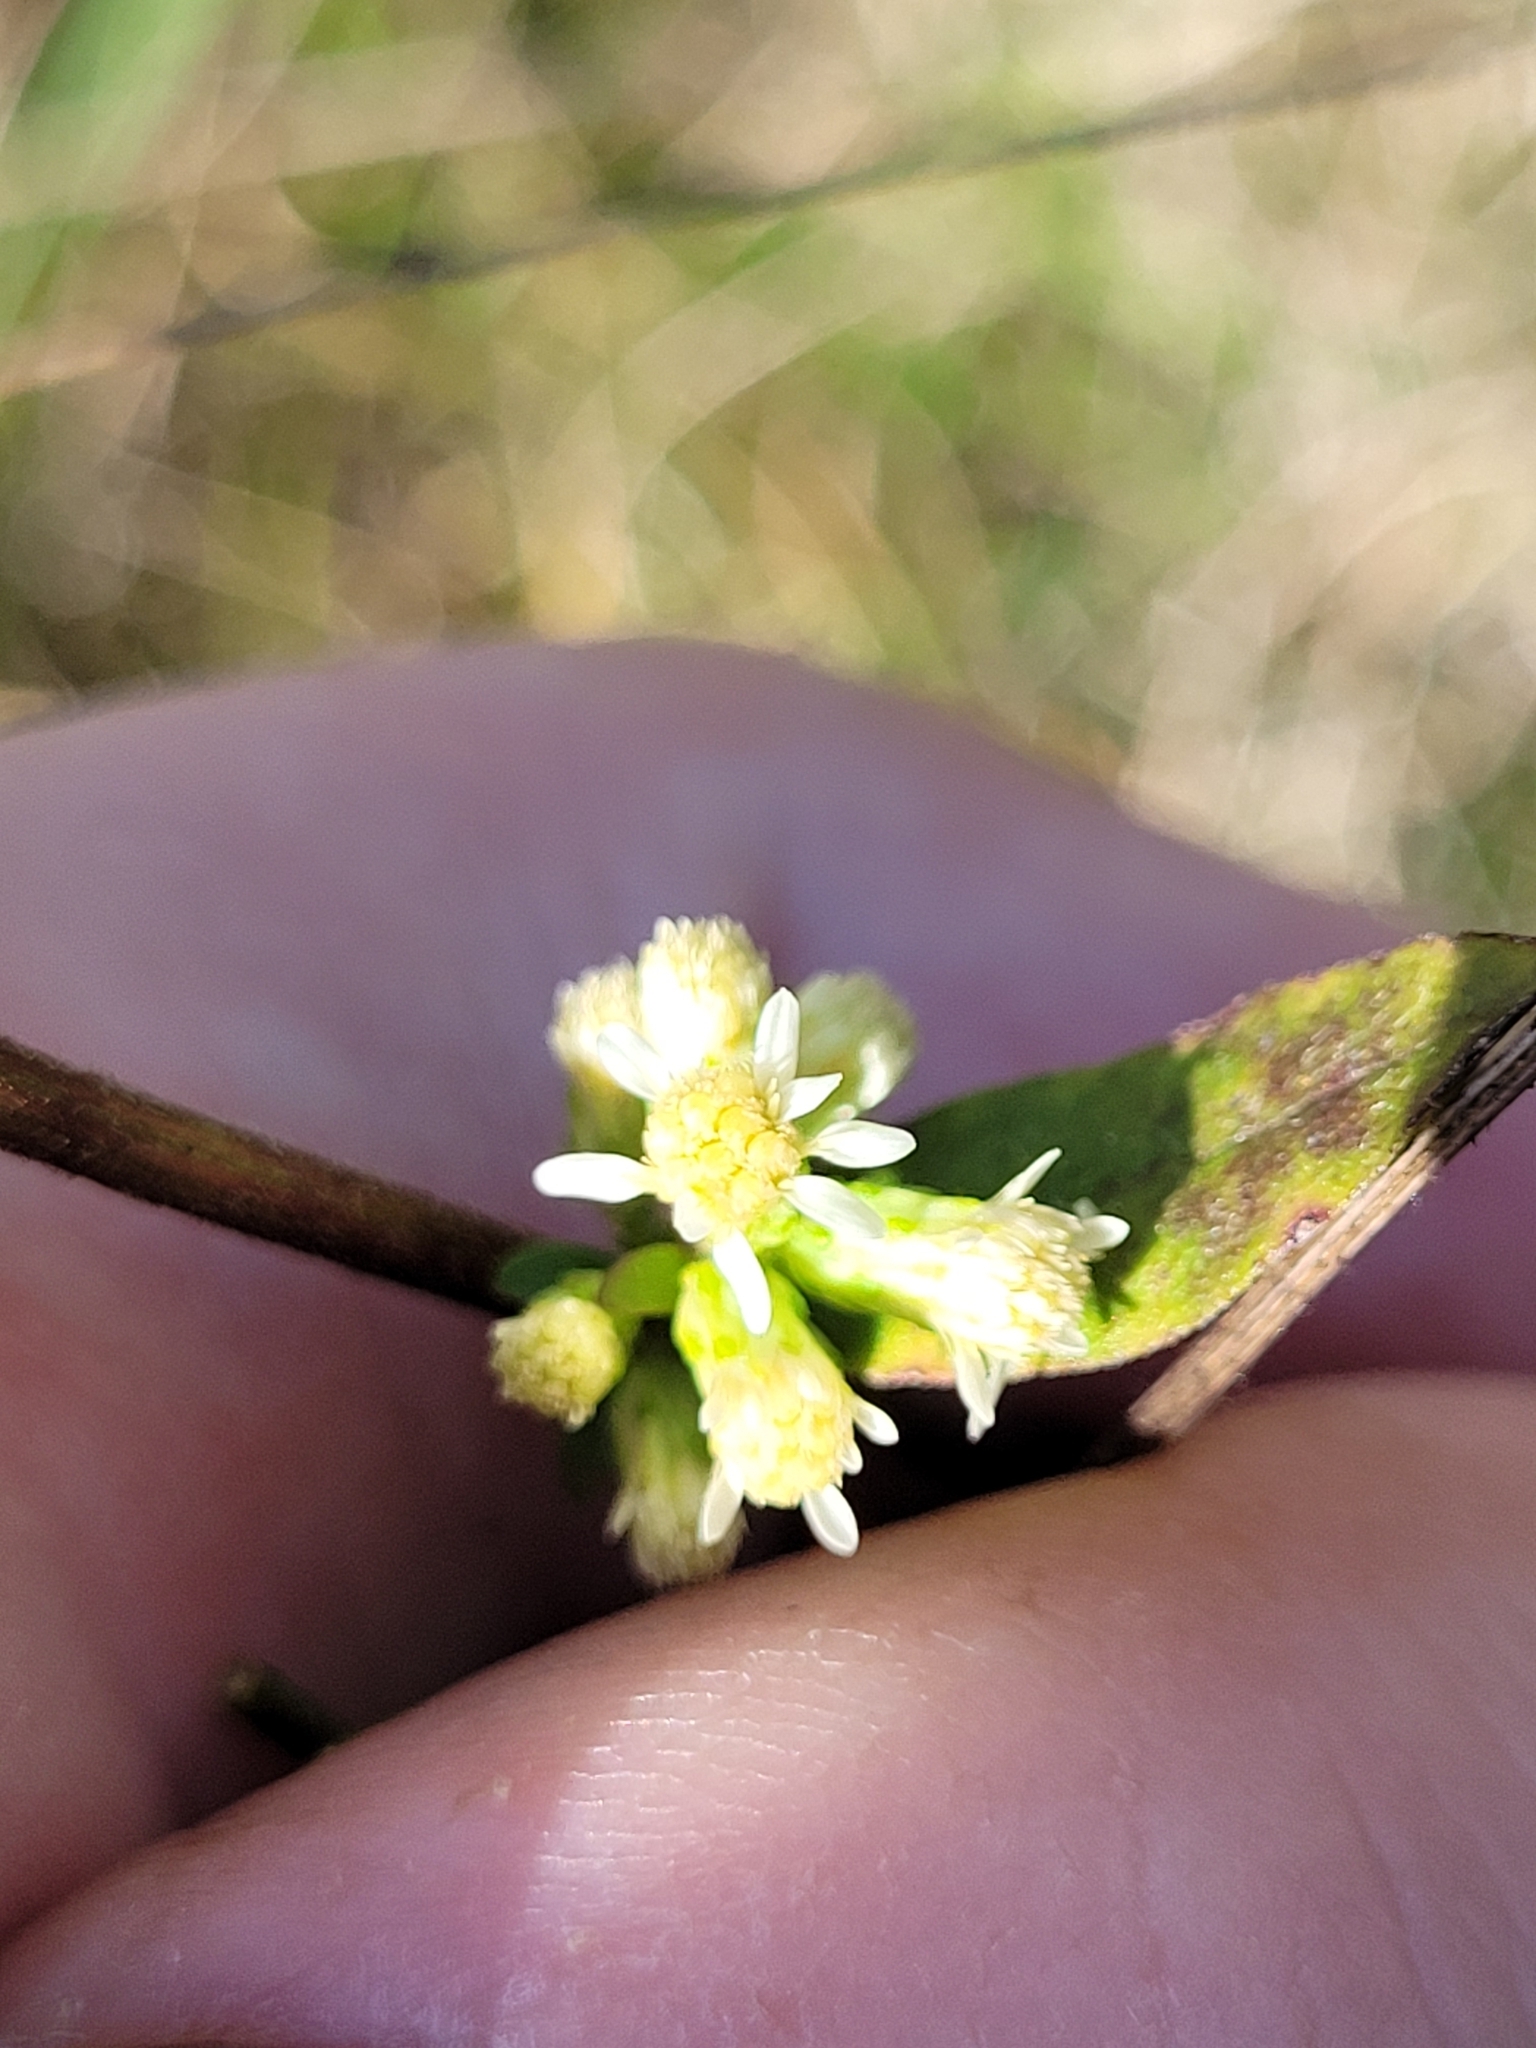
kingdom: Plantae
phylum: Tracheophyta
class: Magnoliopsida
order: Asterales
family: Asteraceae
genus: Solidago
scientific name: Solidago bicolor
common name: Silverrod
